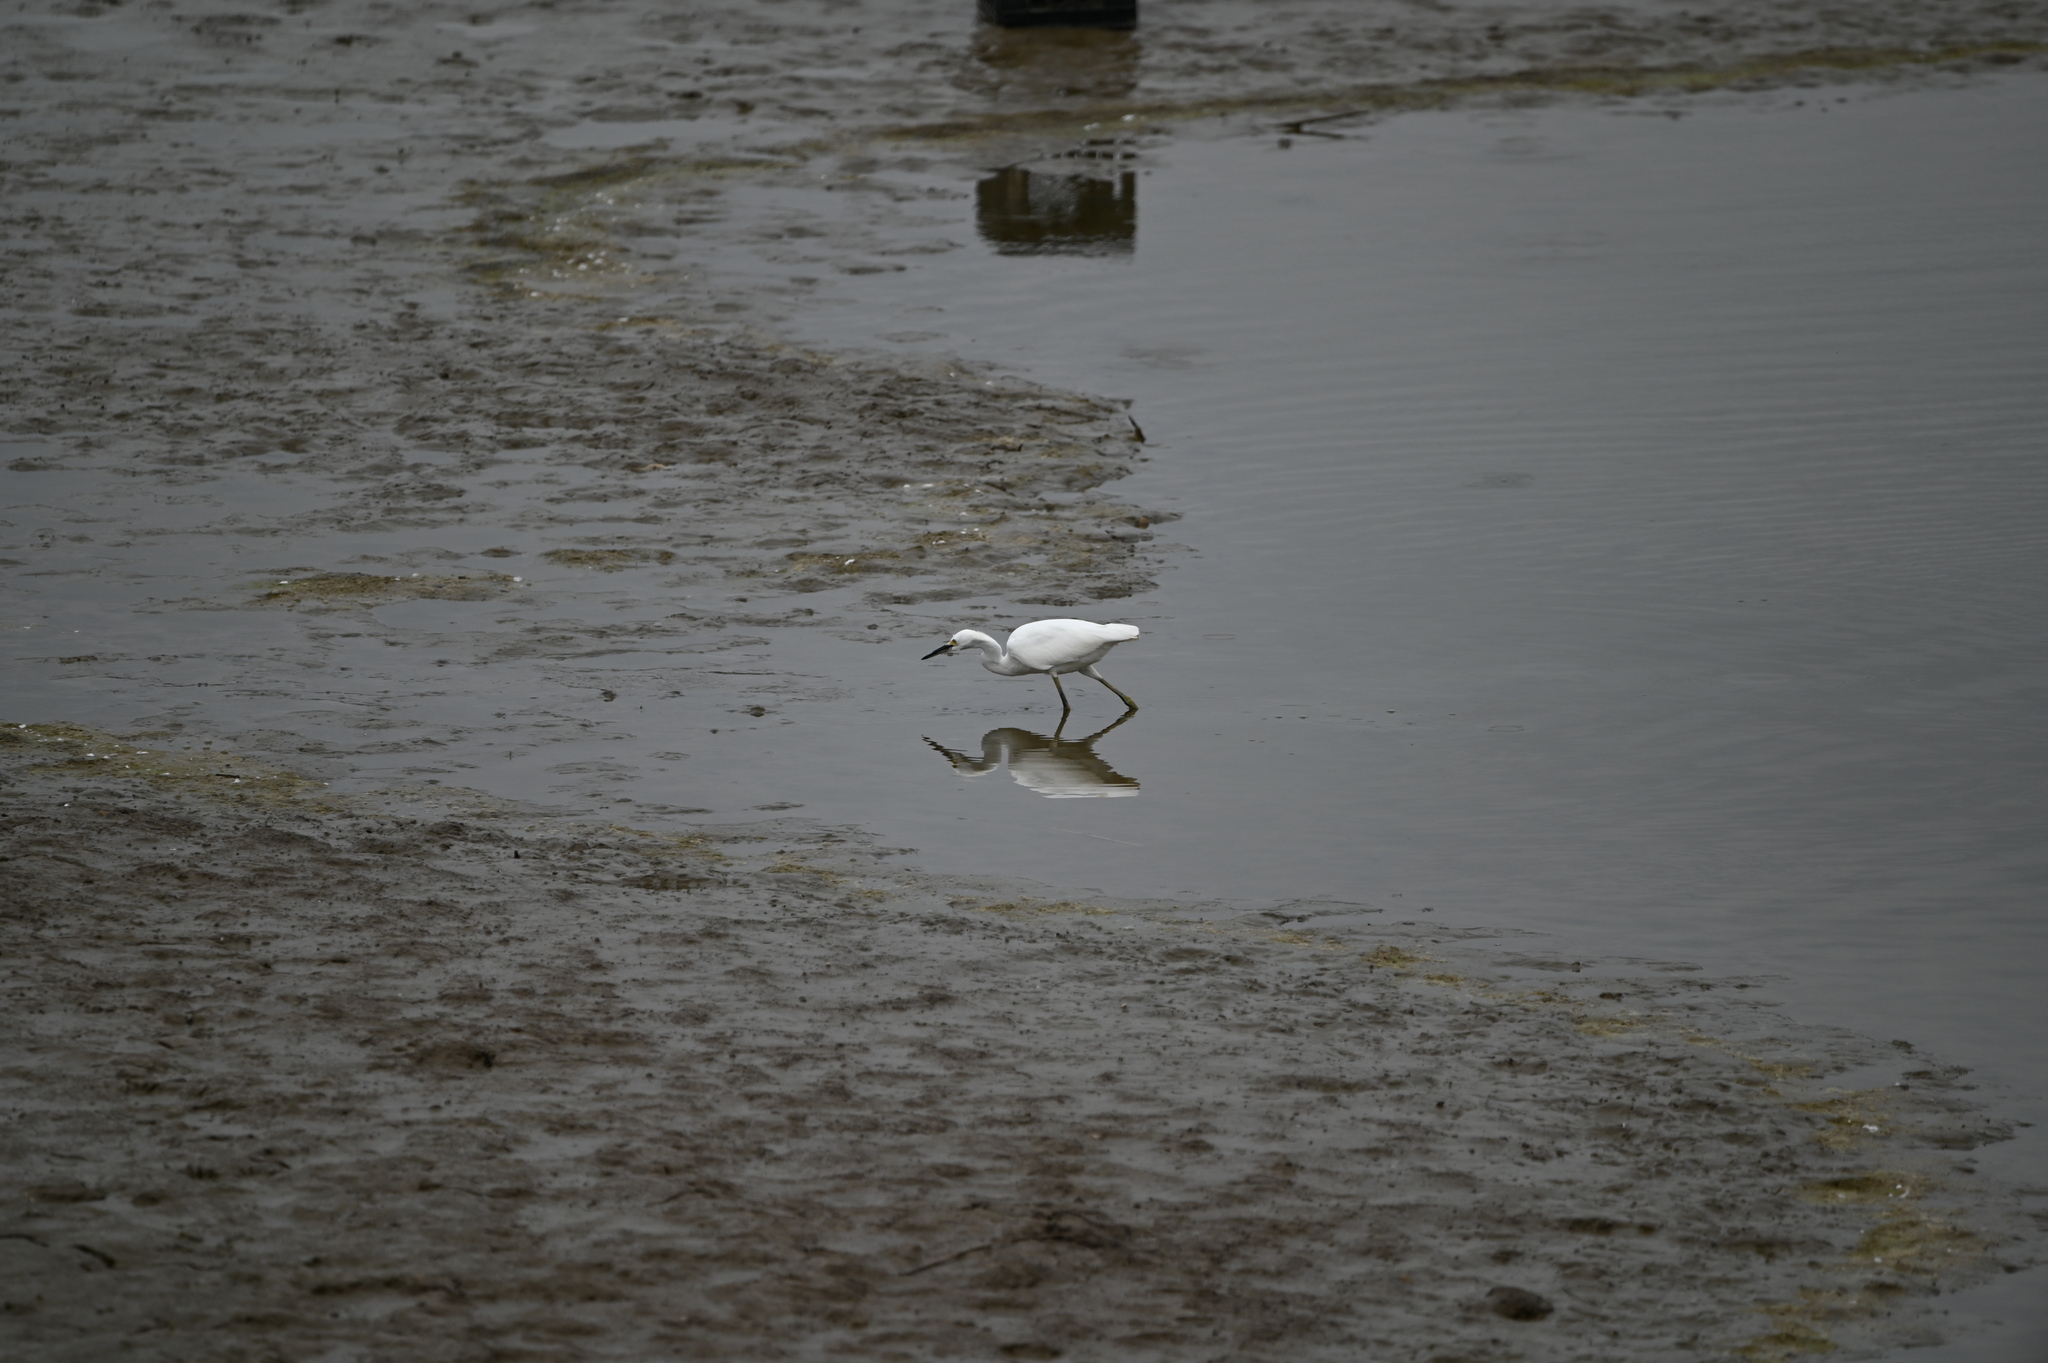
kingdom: Animalia
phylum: Chordata
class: Aves
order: Pelecaniformes
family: Ardeidae
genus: Egretta
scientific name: Egretta thula
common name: Snowy egret
